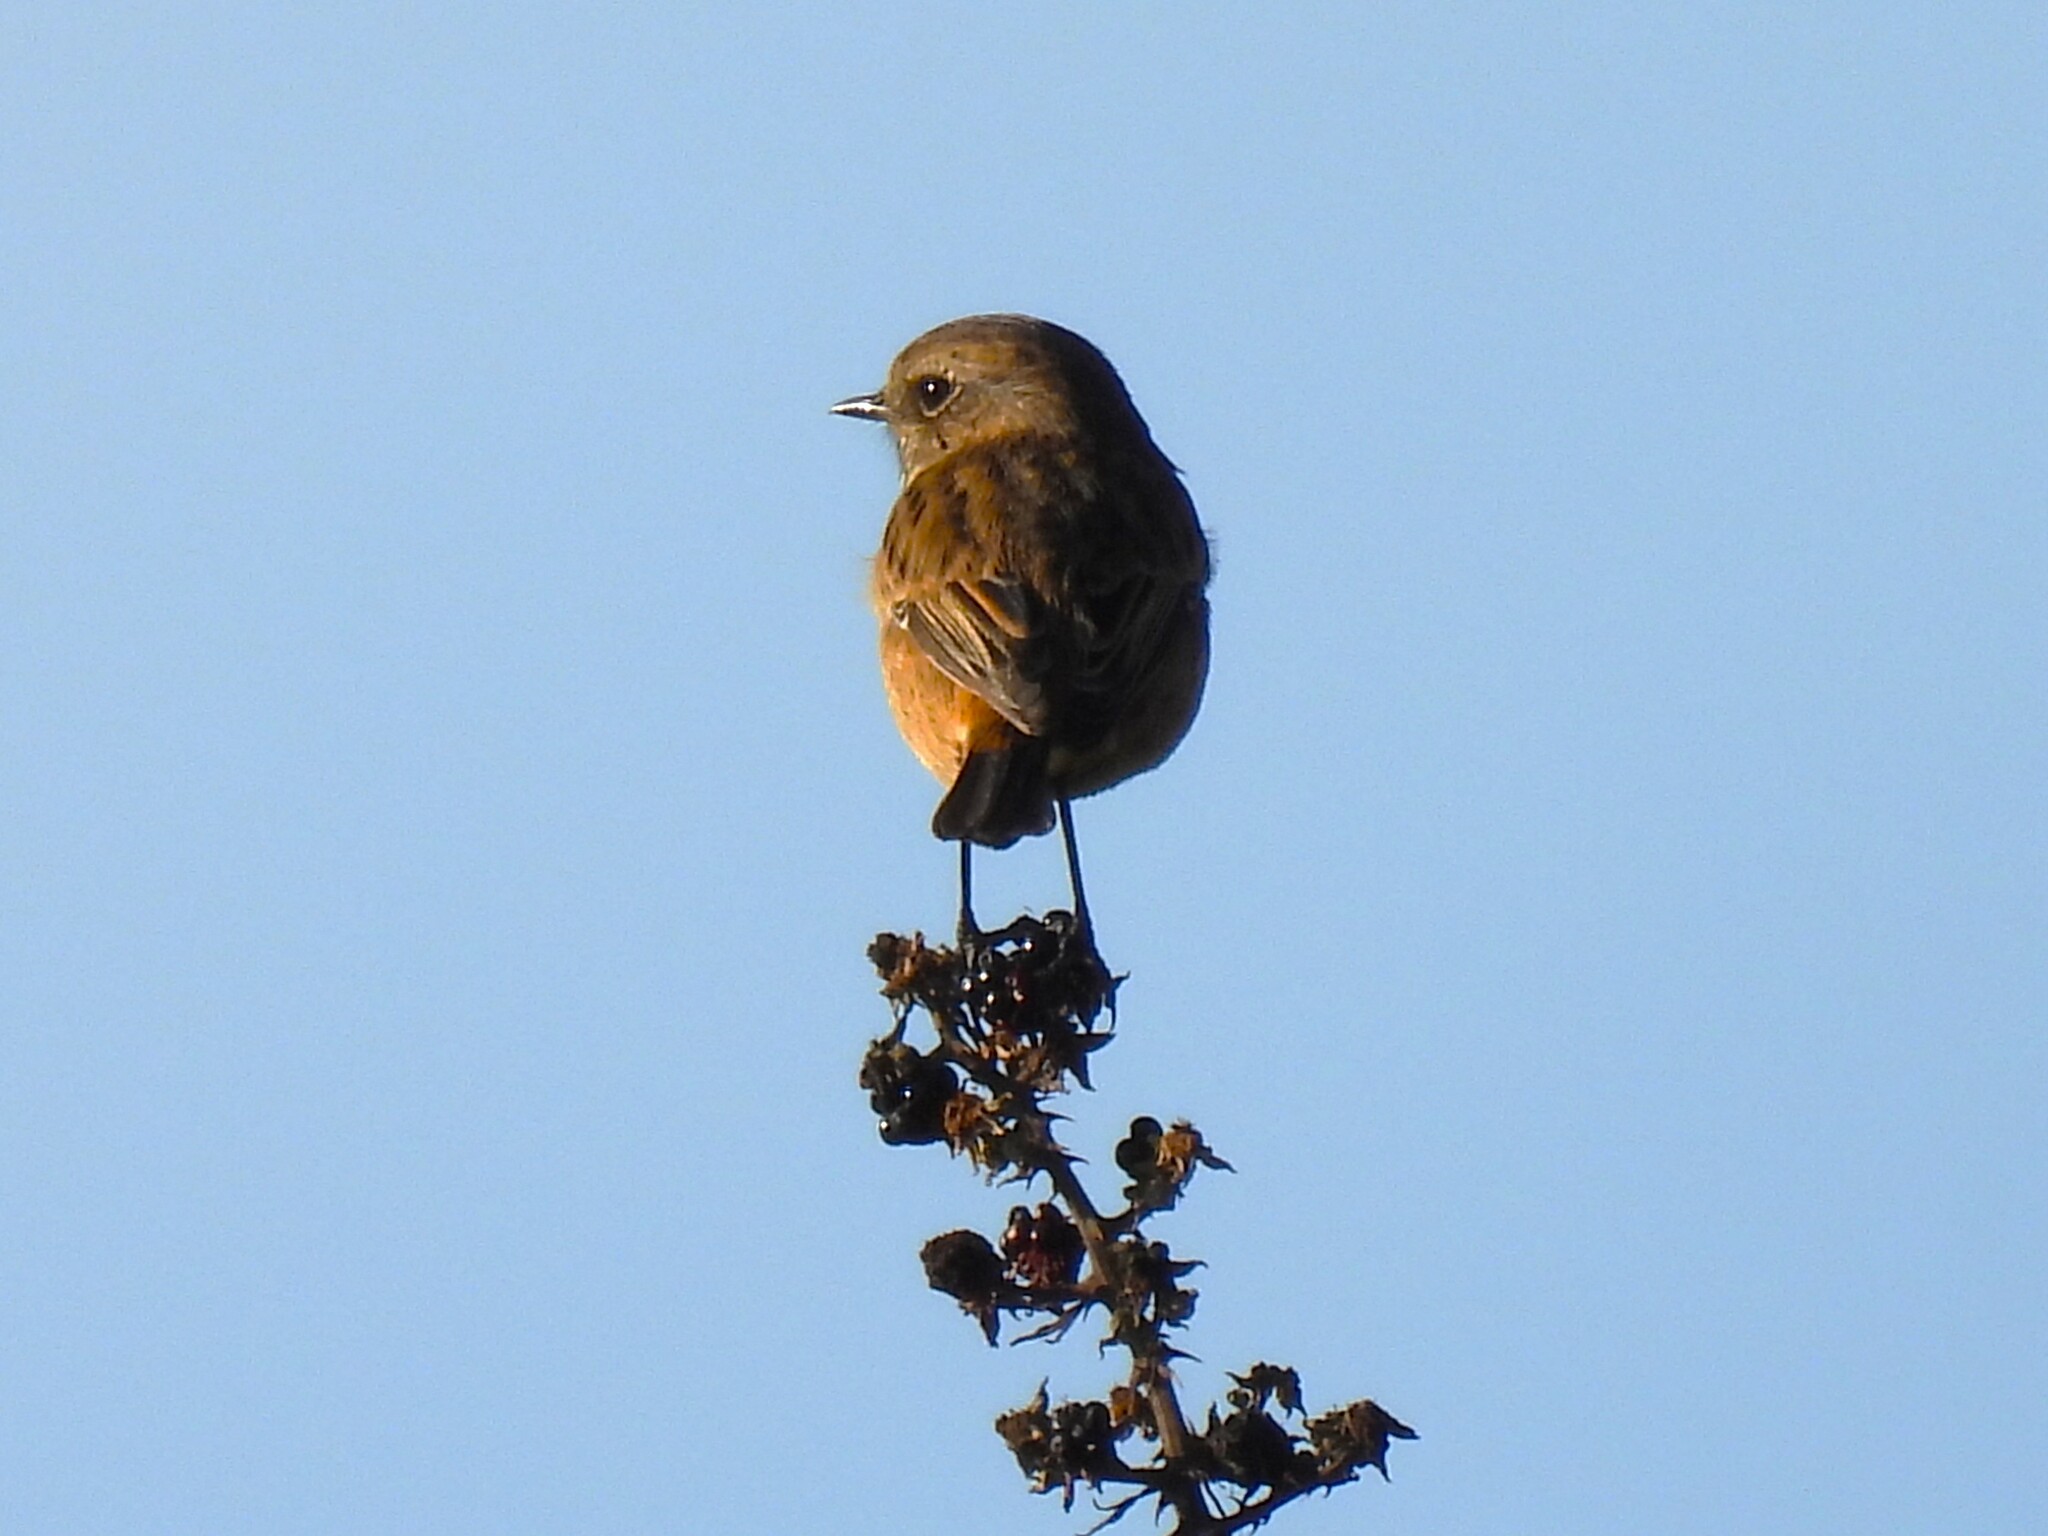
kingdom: Animalia
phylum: Chordata
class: Aves
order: Passeriformes
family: Muscicapidae
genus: Saxicola
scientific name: Saxicola rubicola
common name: European stonechat
